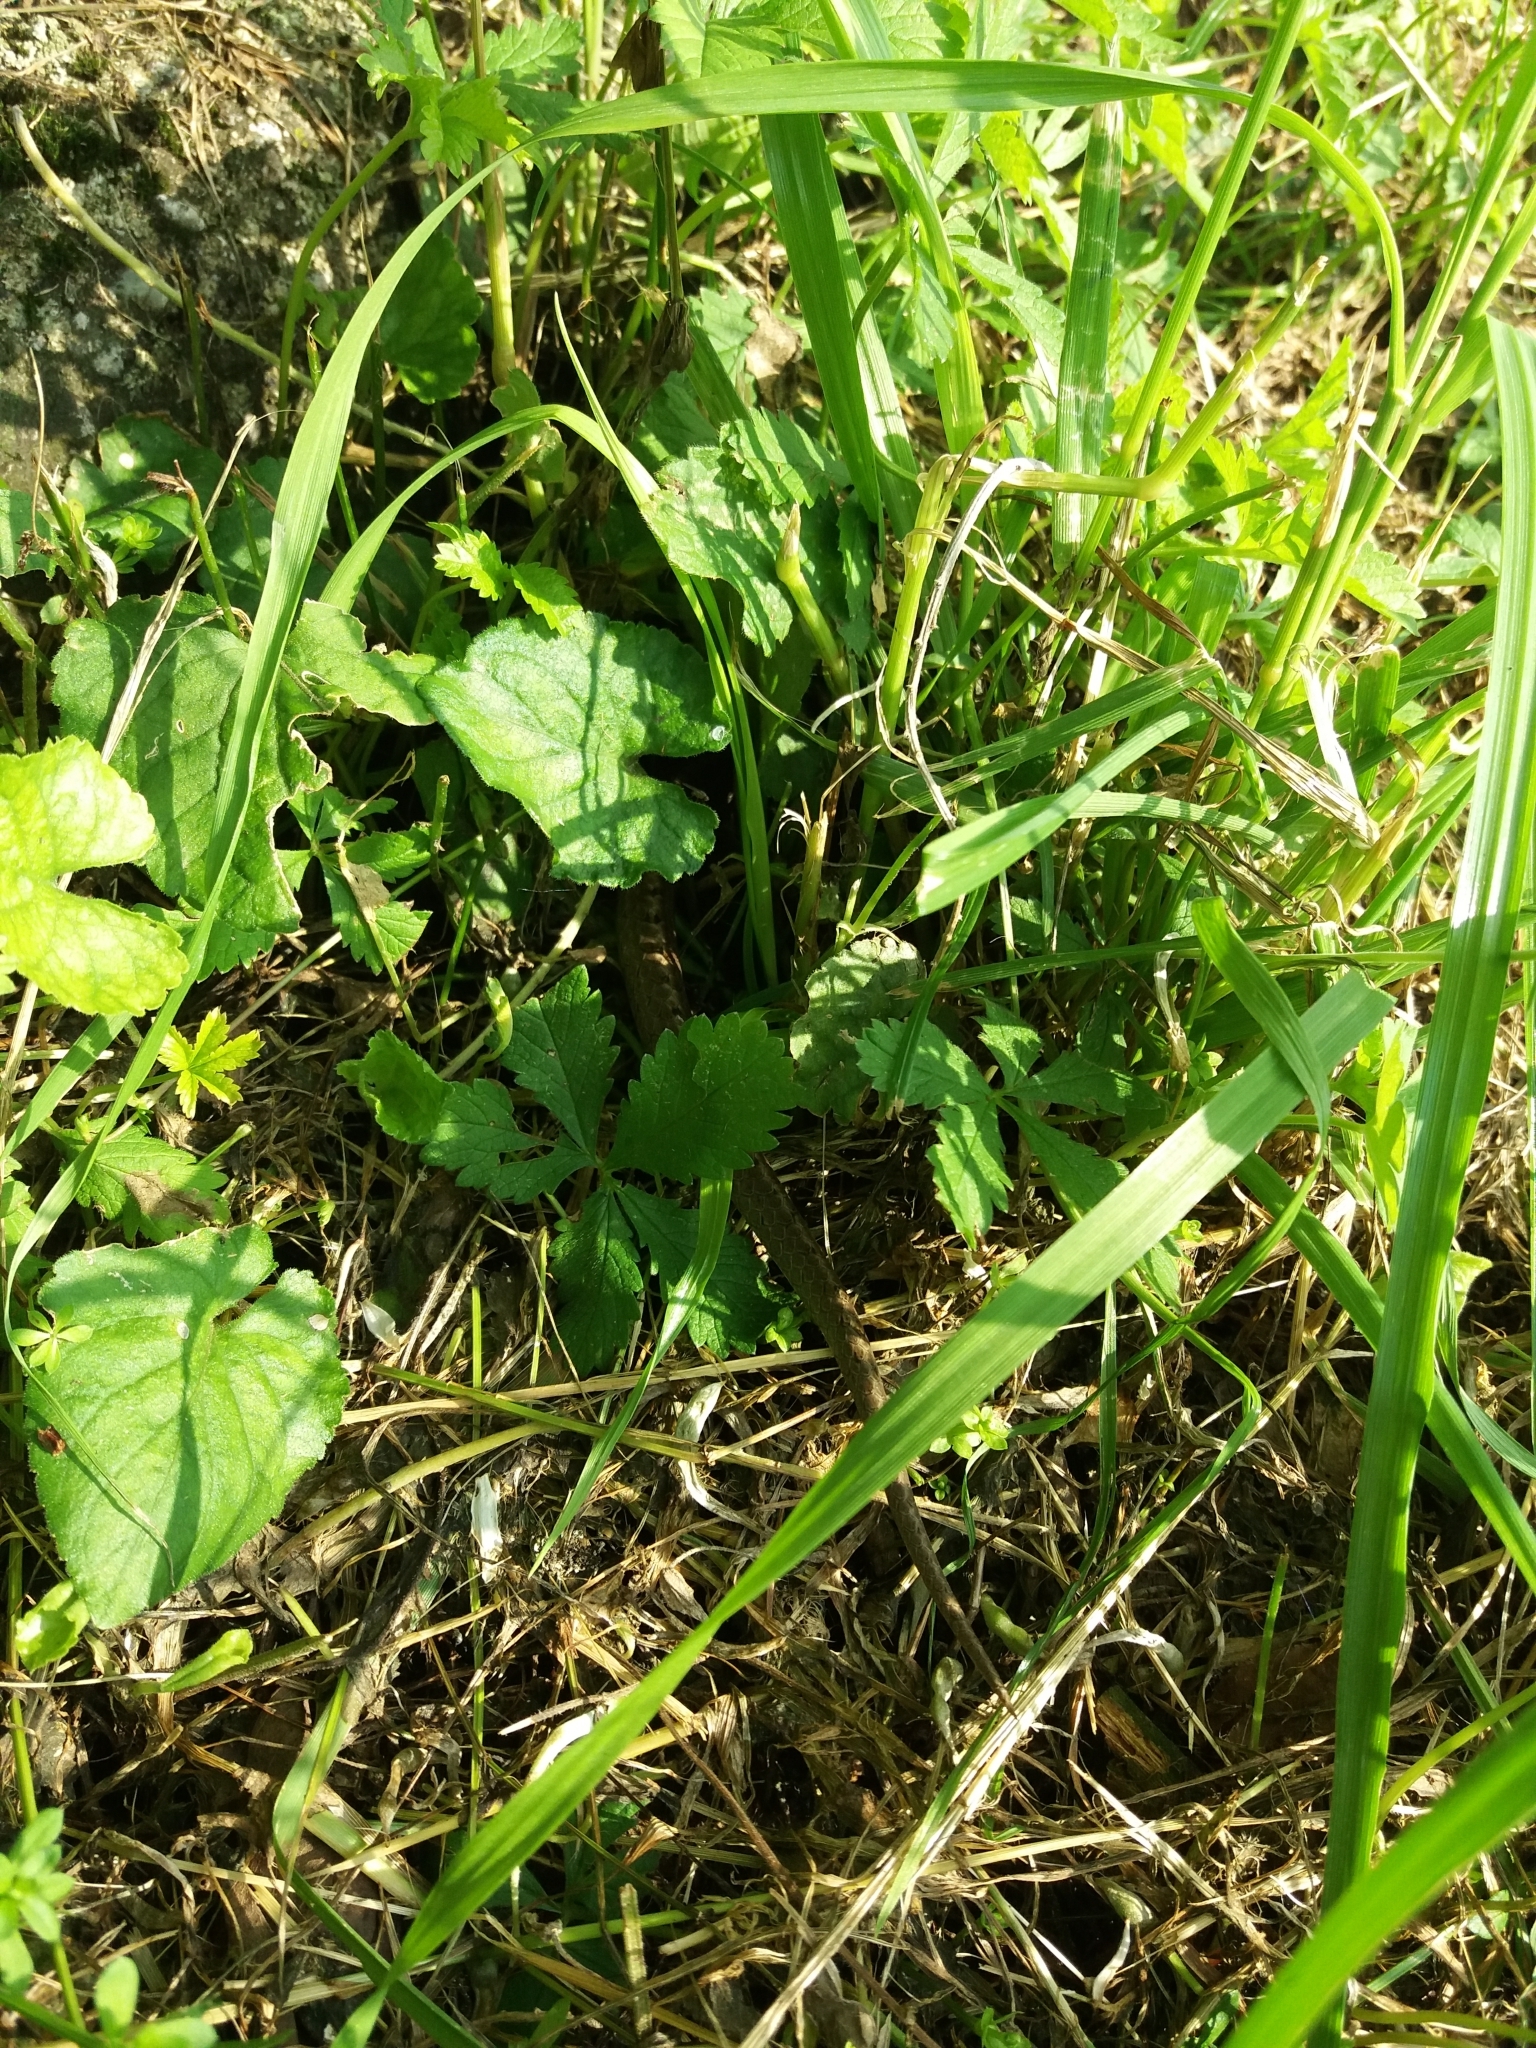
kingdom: Animalia
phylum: Chordata
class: Squamata
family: Colubridae
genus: Coronella
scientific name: Coronella austriaca
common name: Smooth snake
